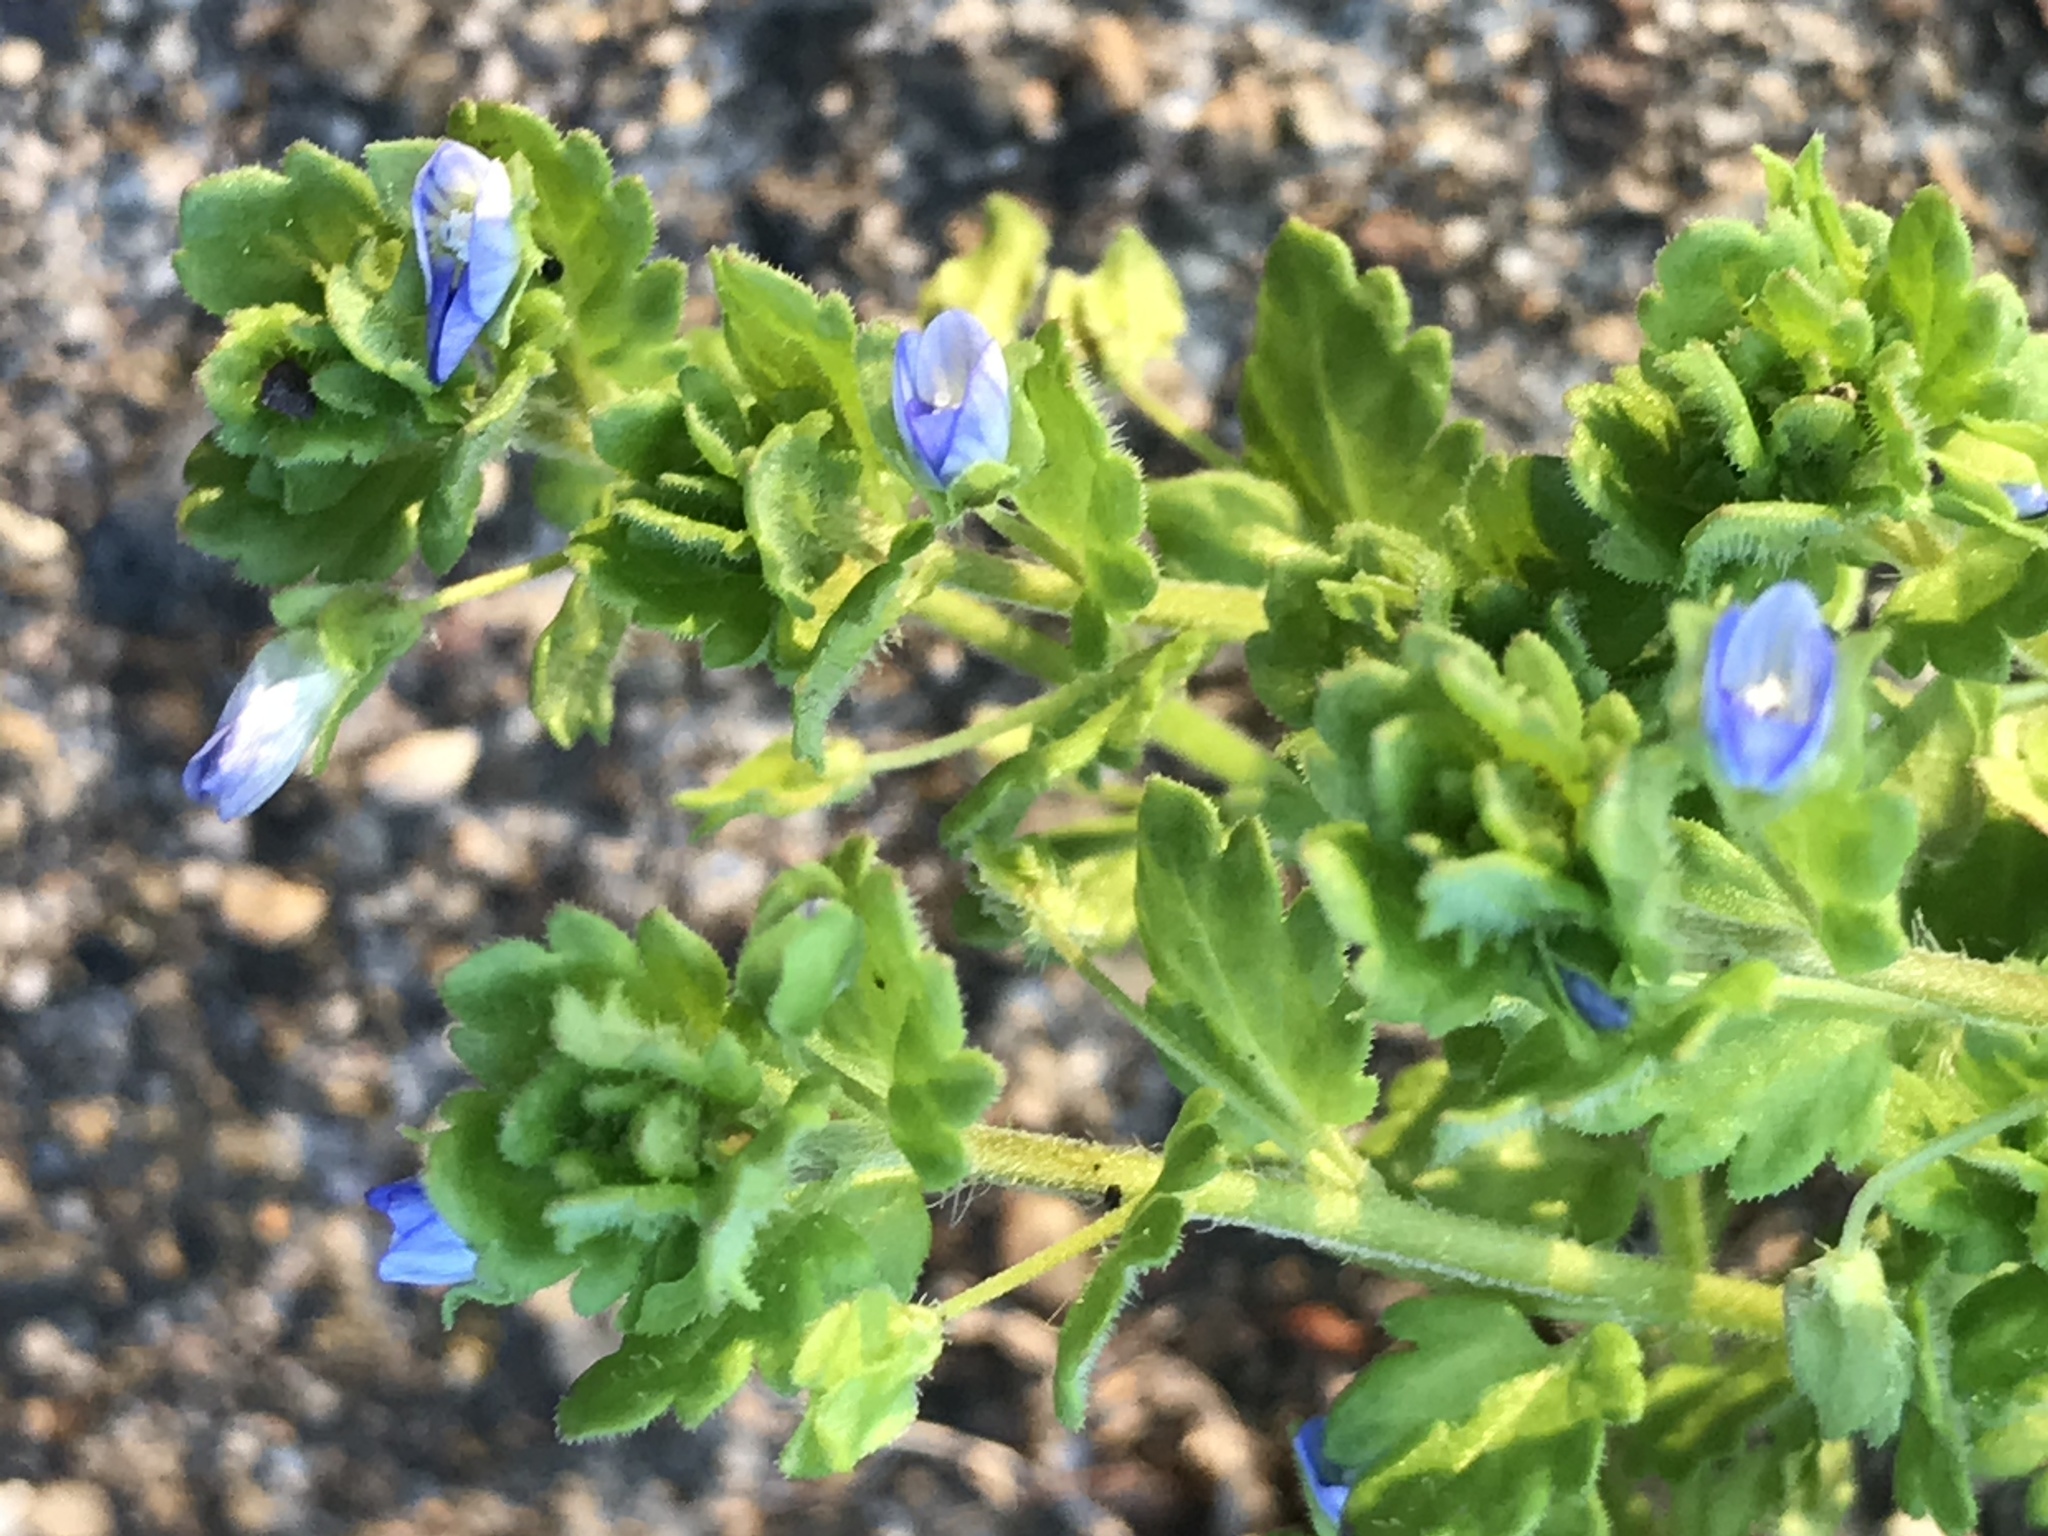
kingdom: Plantae
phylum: Tracheophyta
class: Magnoliopsida
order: Lamiales
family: Plantaginaceae
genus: Veronica
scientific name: Veronica polita
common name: Grey field-speedwell
